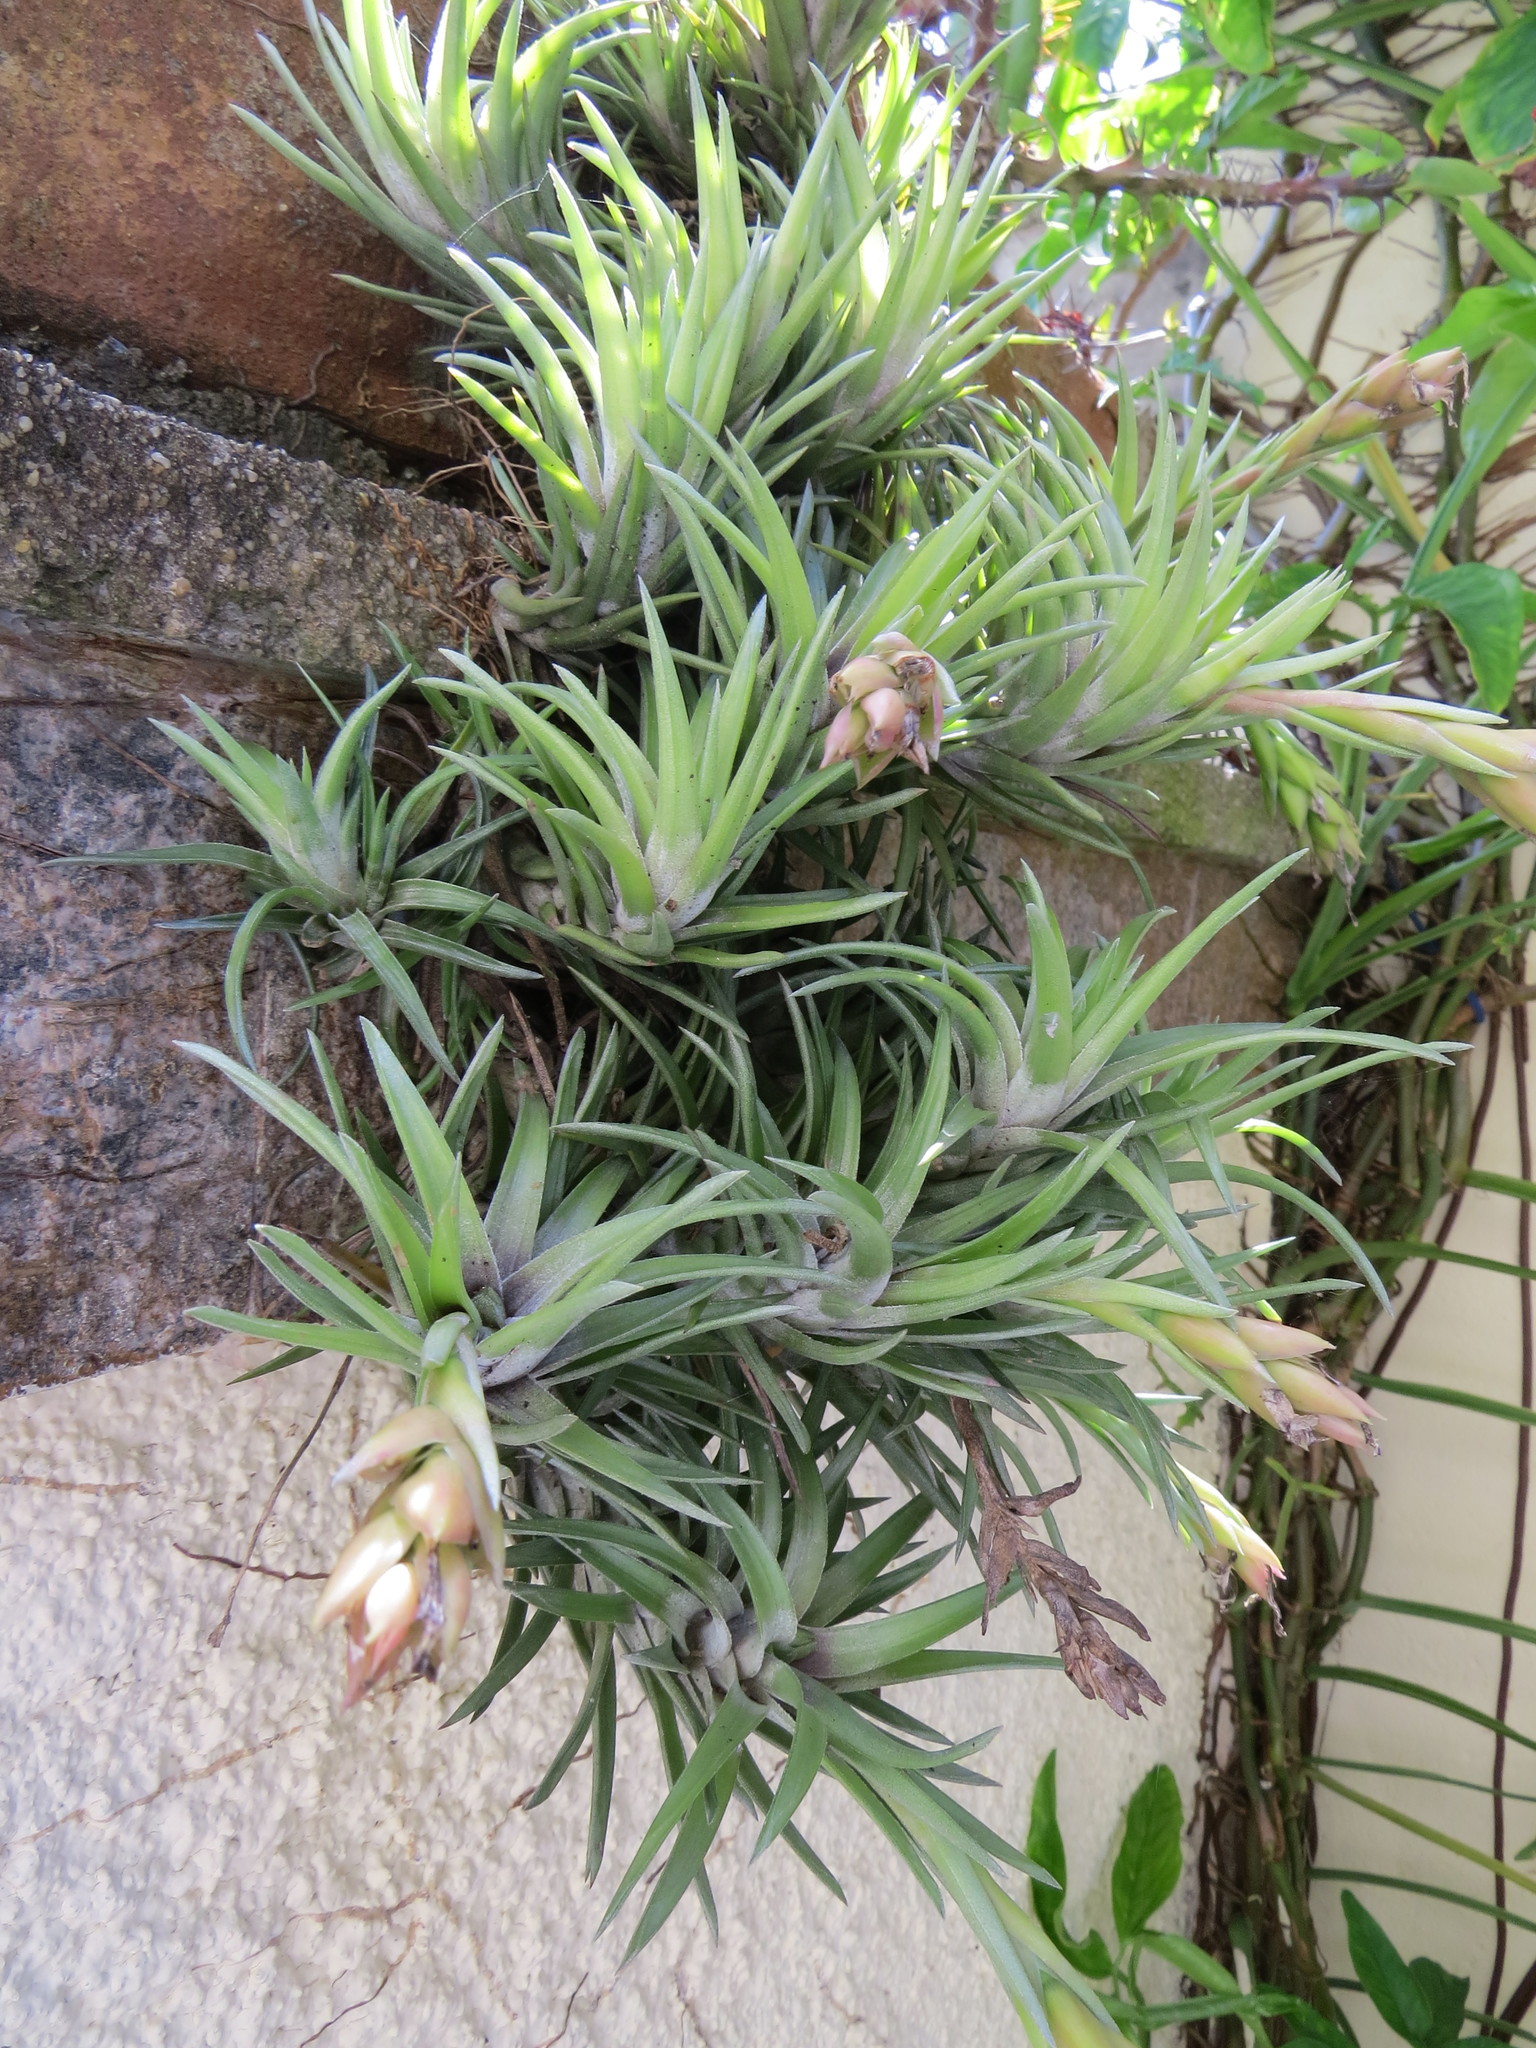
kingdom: Plantae
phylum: Tracheophyta
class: Liliopsida
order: Poales
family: Bromeliaceae
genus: Tillandsia
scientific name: Tillandsia neglecta
